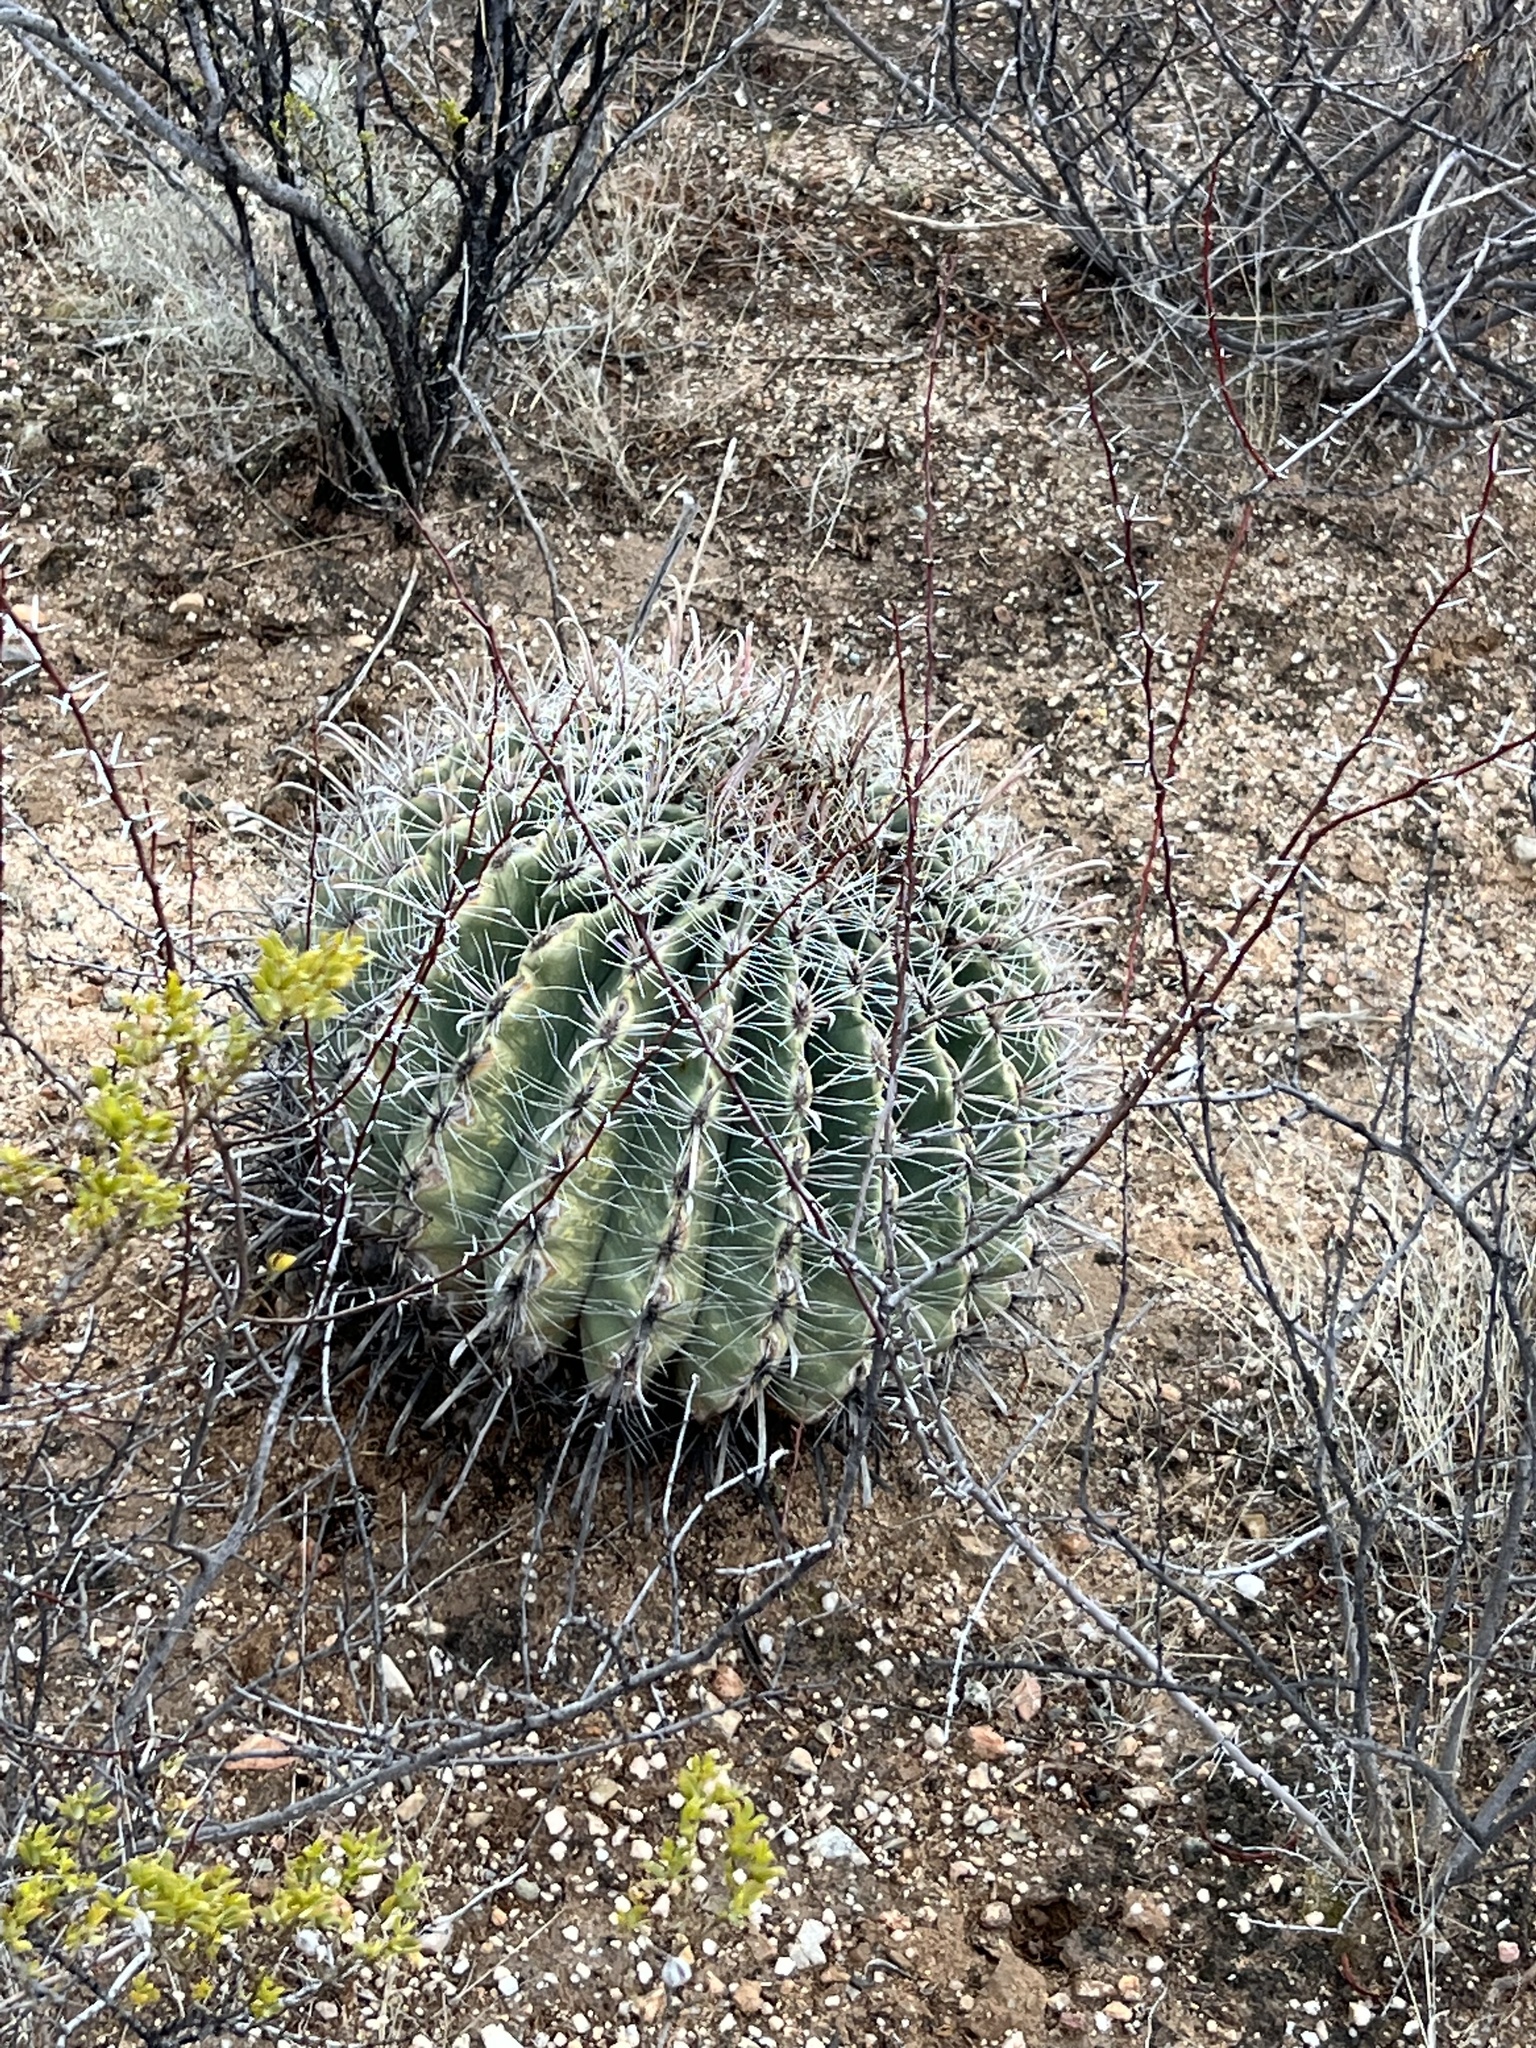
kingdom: Plantae
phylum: Tracheophyta
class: Magnoliopsida
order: Caryophyllales
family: Cactaceae
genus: Ferocactus
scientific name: Ferocactus wislizeni
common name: Candy barrel cactus
